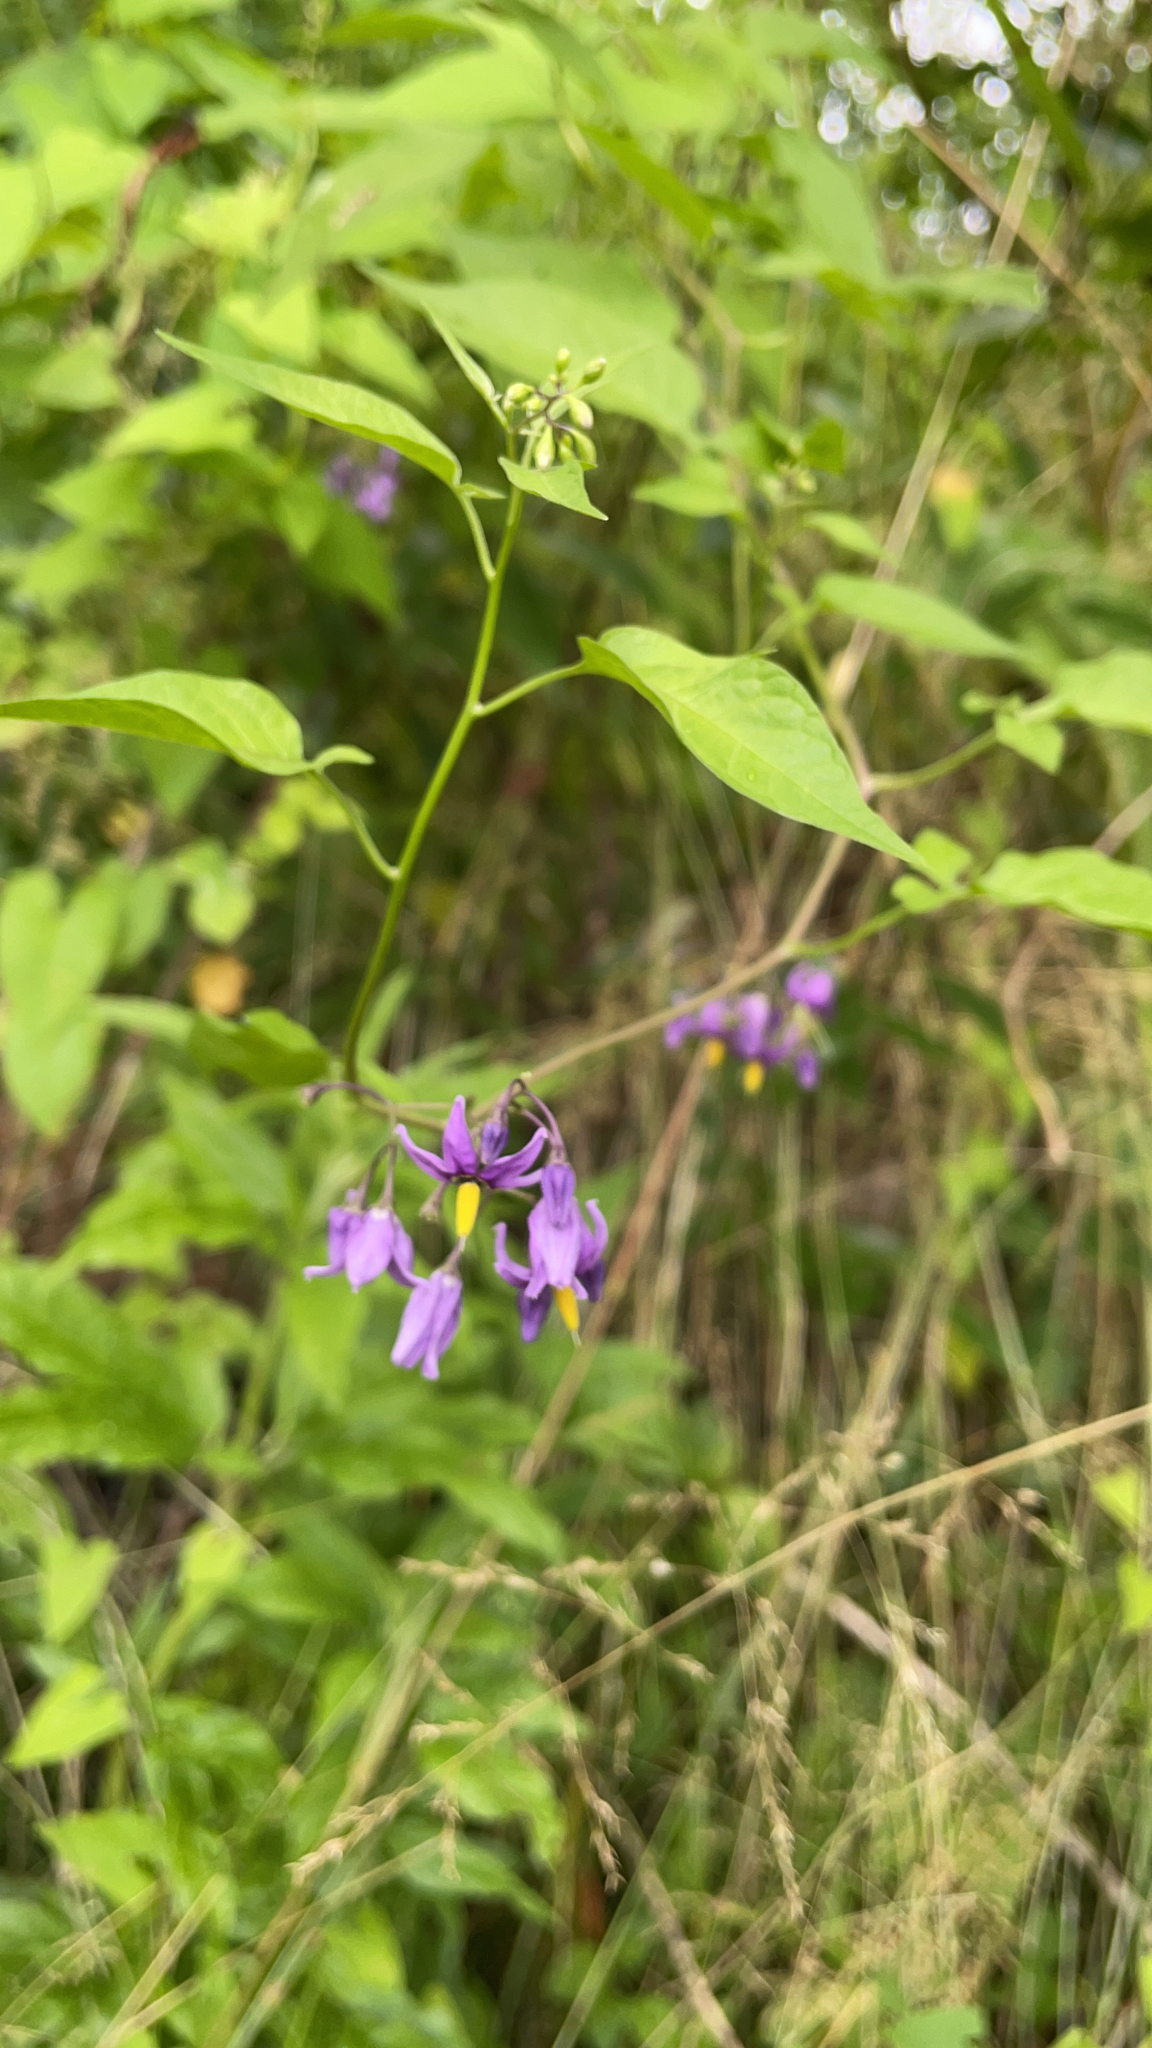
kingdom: Plantae
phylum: Tracheophyta
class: Magnoliopsida
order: Solanales
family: Solanaceae
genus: Solanum
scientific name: Solanum dulcamara
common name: Climbing nightshade
